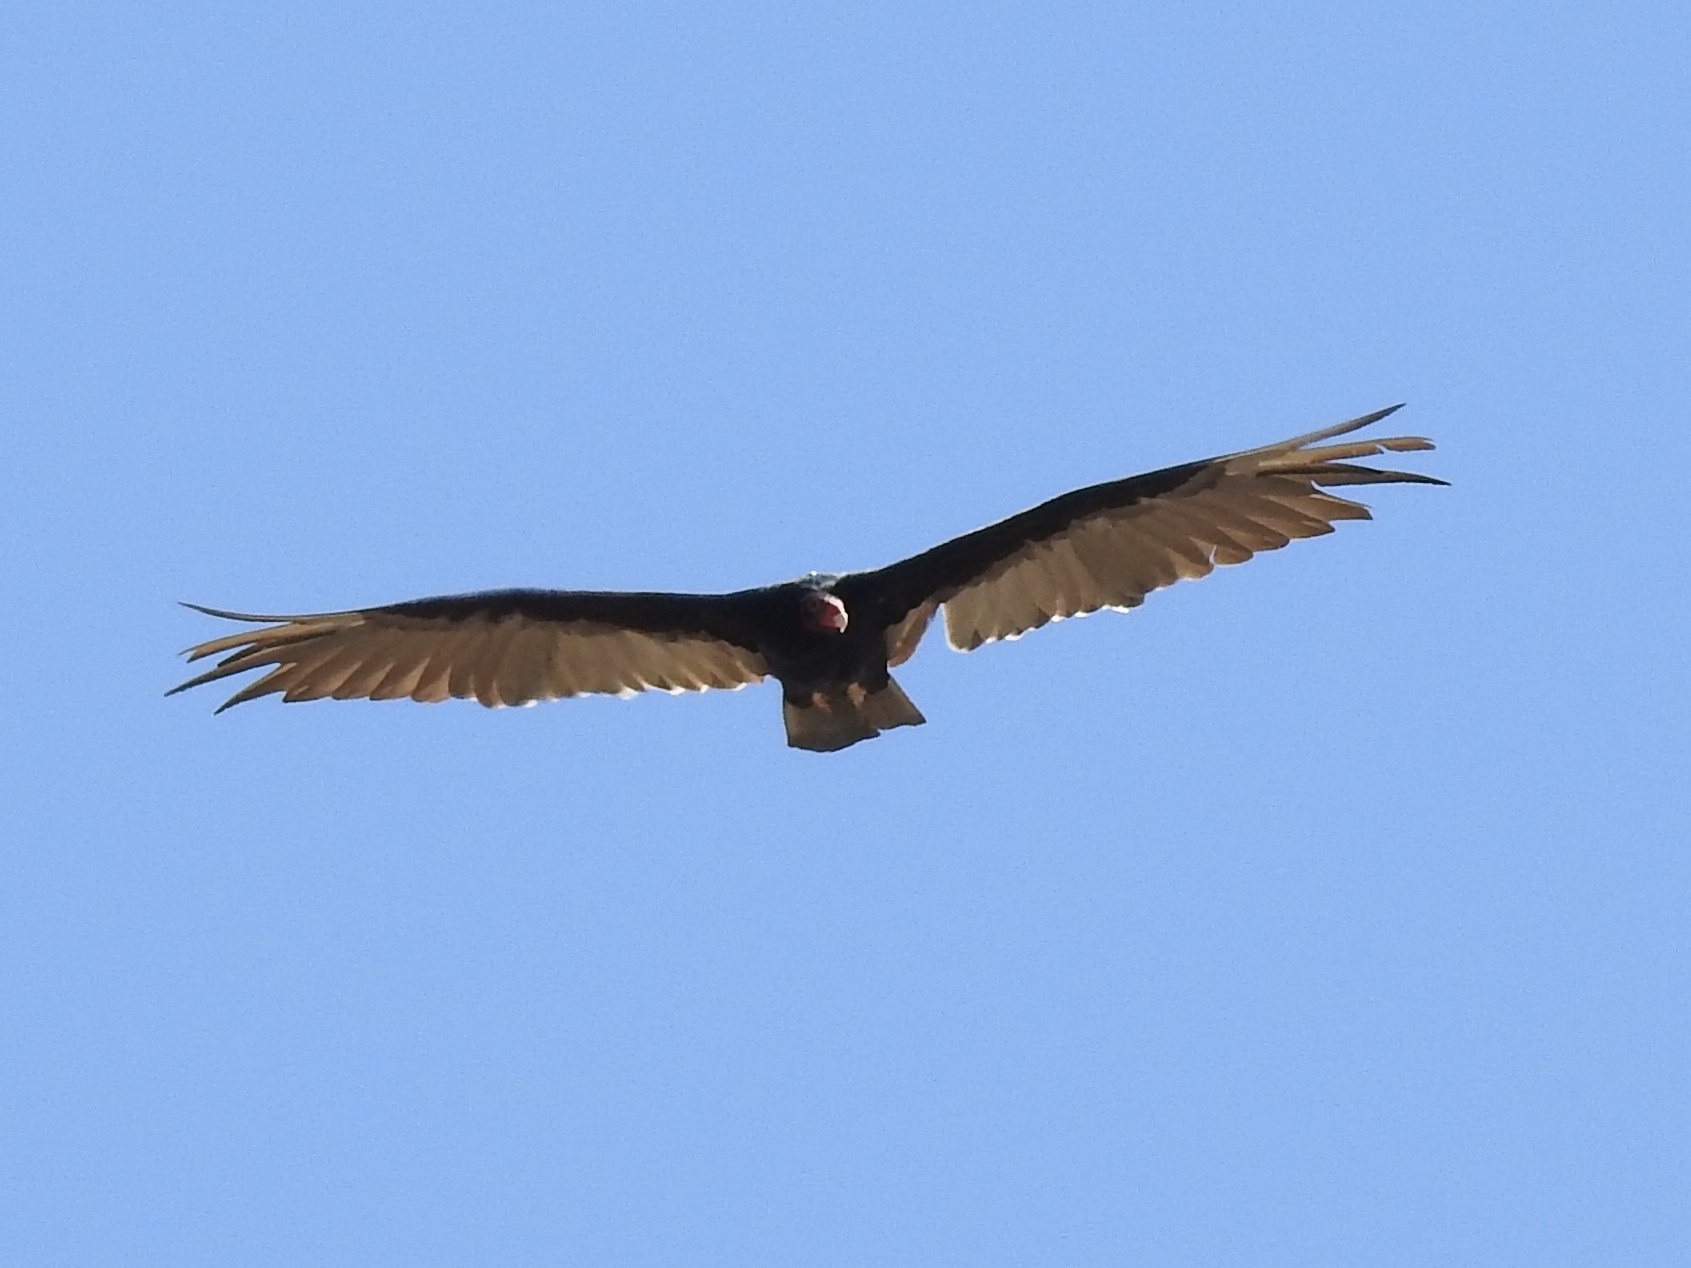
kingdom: Animalia
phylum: Chordata
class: Aves
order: Accipitriformes
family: Cathartidae
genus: Cathartes
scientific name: Cathartes aura
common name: Turkey vulture
